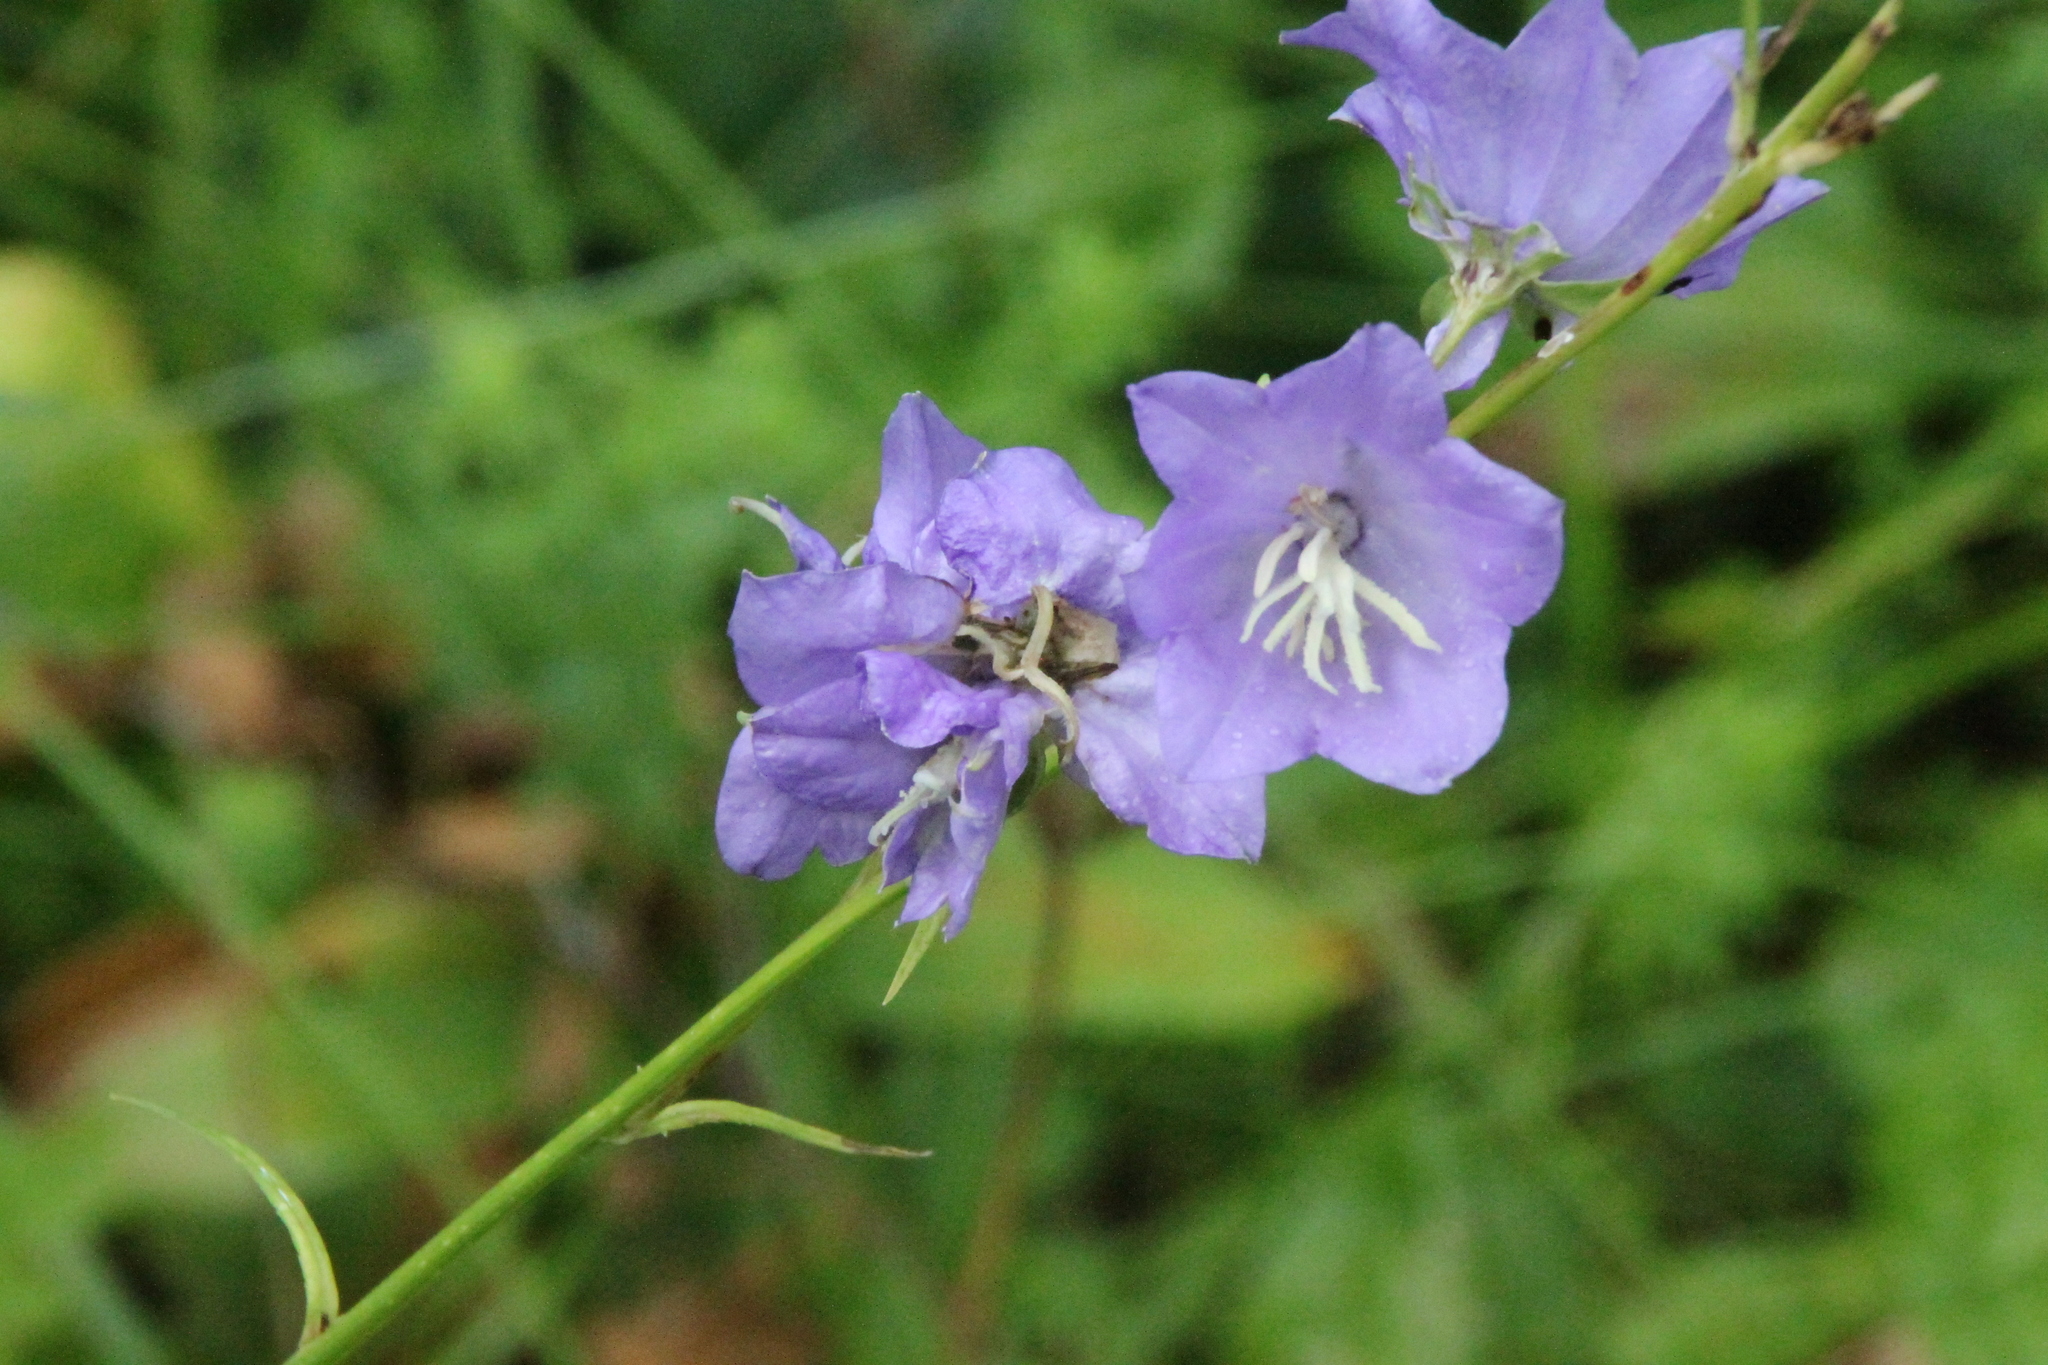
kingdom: Plantae
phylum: Tracheophyta
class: Magnoliopsida
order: Asterales
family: Campanulaceae
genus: Campanula
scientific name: Campanula persicifolia
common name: Peach-leaved bellflower
